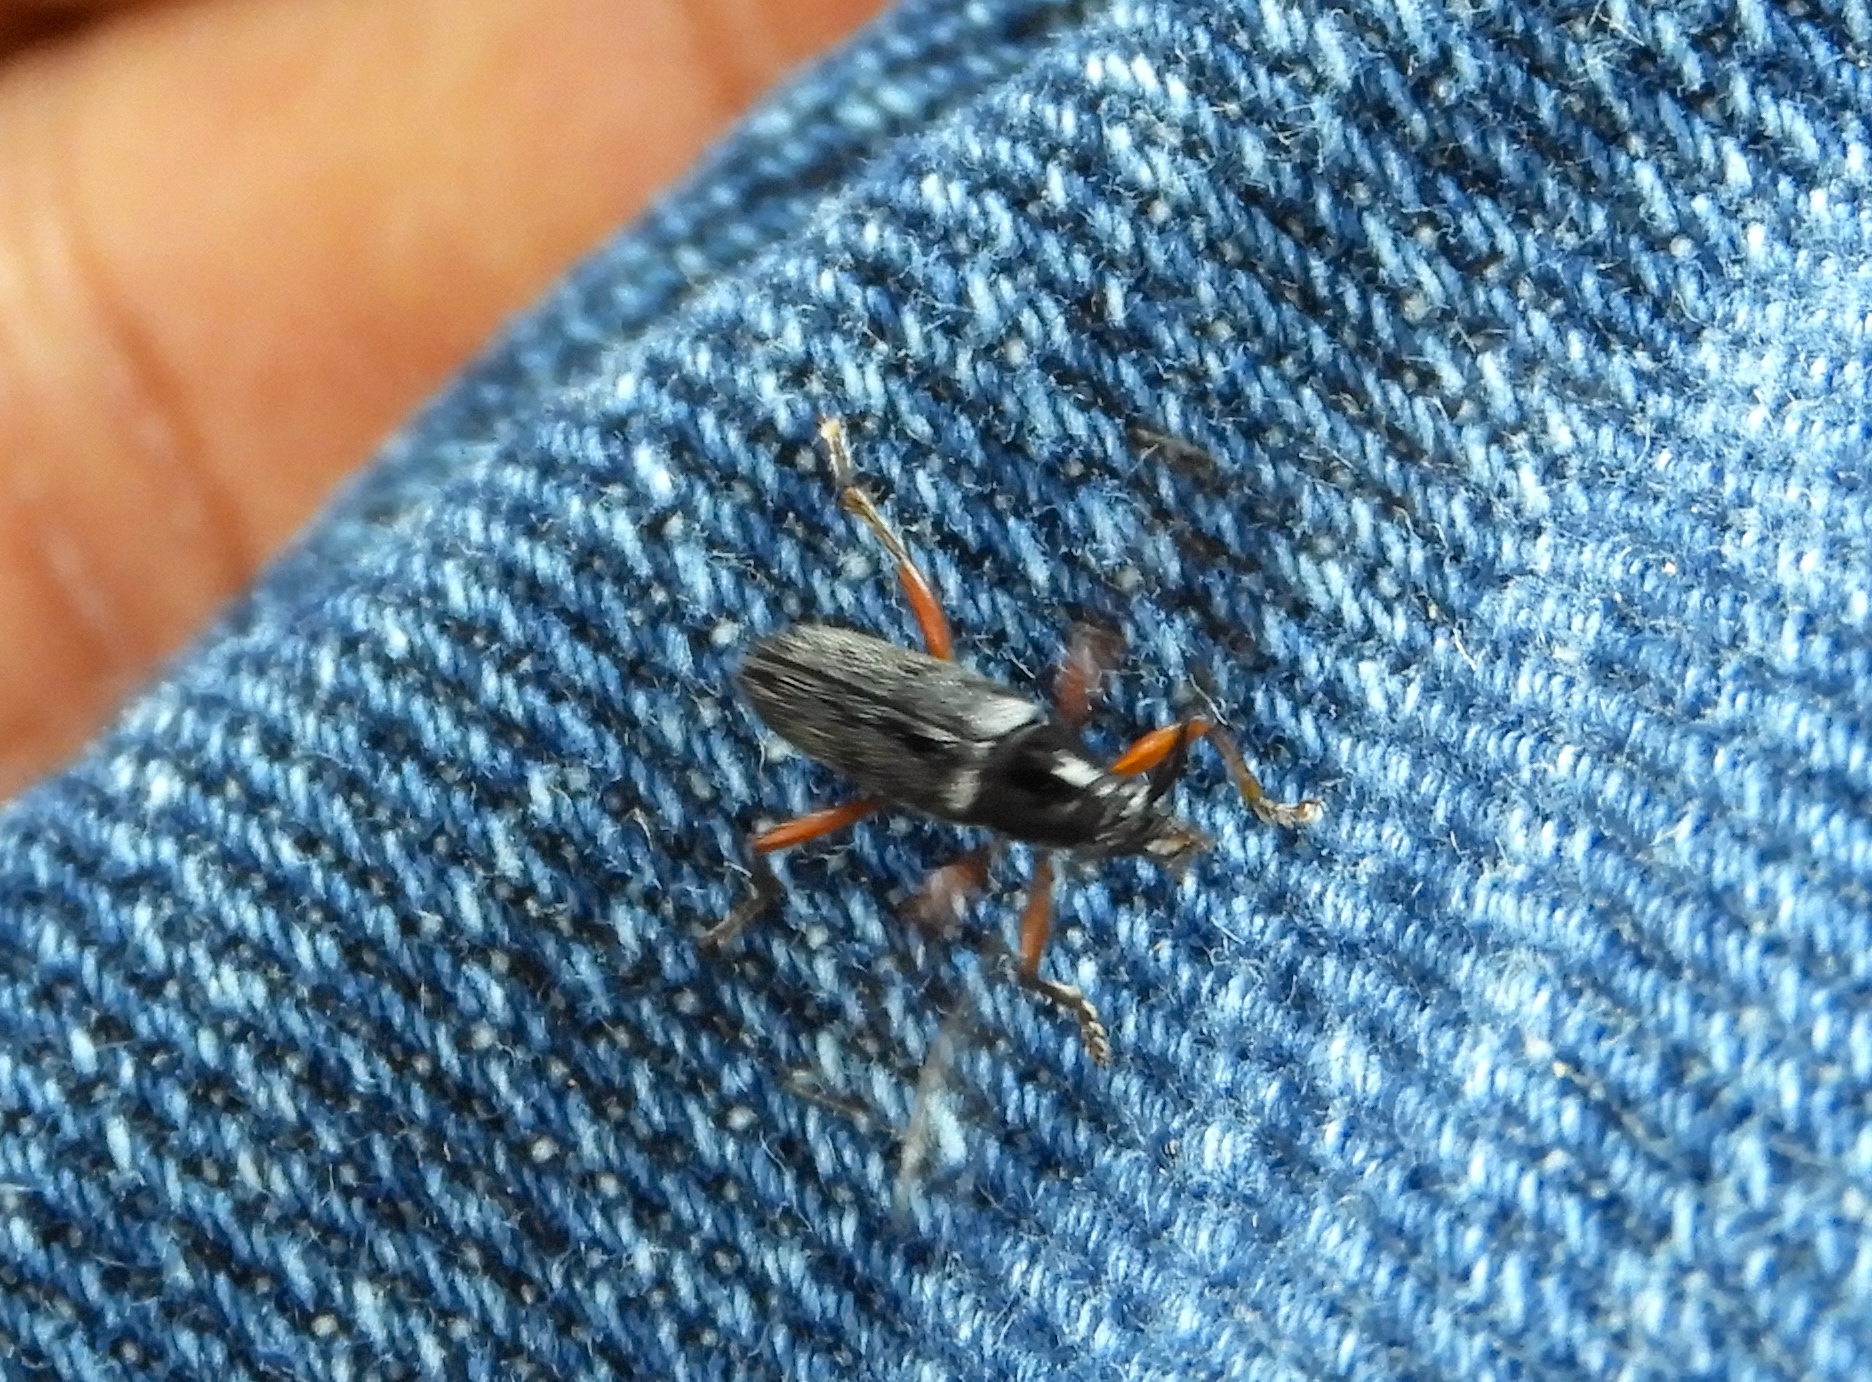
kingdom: Animalia
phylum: Arthropoda
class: Insecta
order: Coleoptera
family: Cerambycidae
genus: Stenosphenus
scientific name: Stenosphenus
